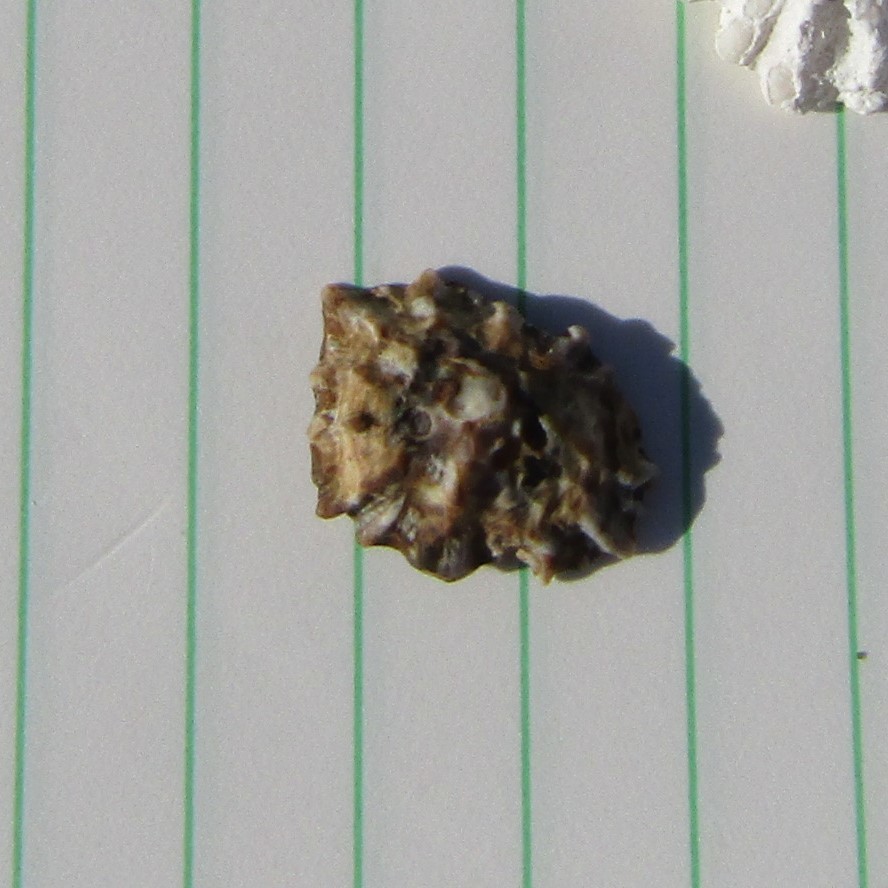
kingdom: Animalia
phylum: Mollusca
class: Gastropoda
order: Siphonariida
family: Siphonariidae
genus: Siphonaria
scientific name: Siphonaria australis
